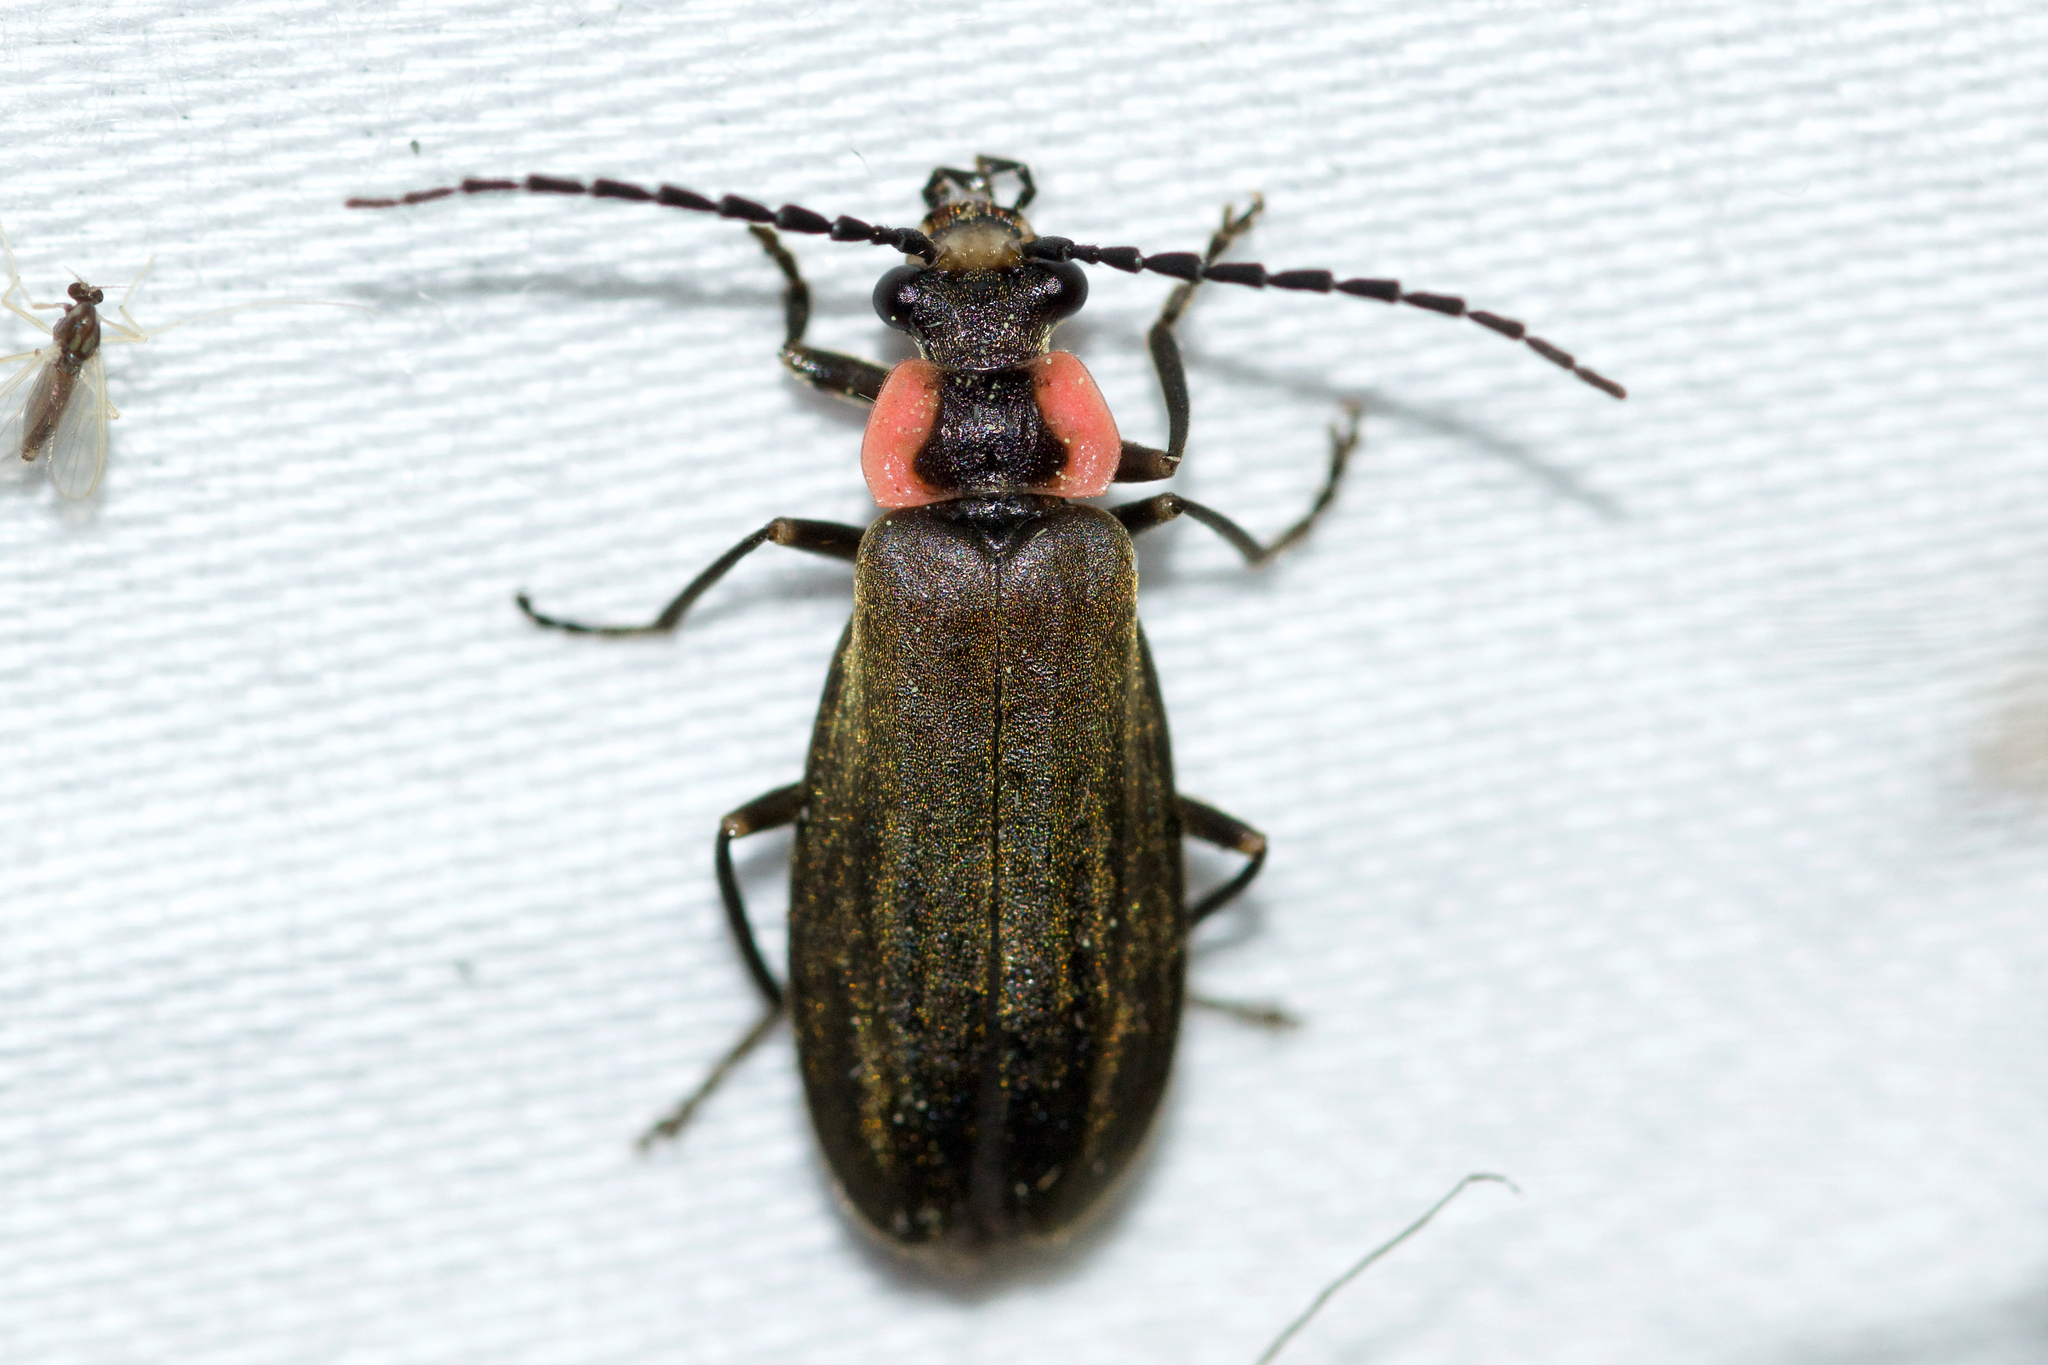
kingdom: Animalia
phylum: Arthropoda
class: Insecta
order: Coleoptera
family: Cantharidae
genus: Podabrus
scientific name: Podabrus tricostatus
